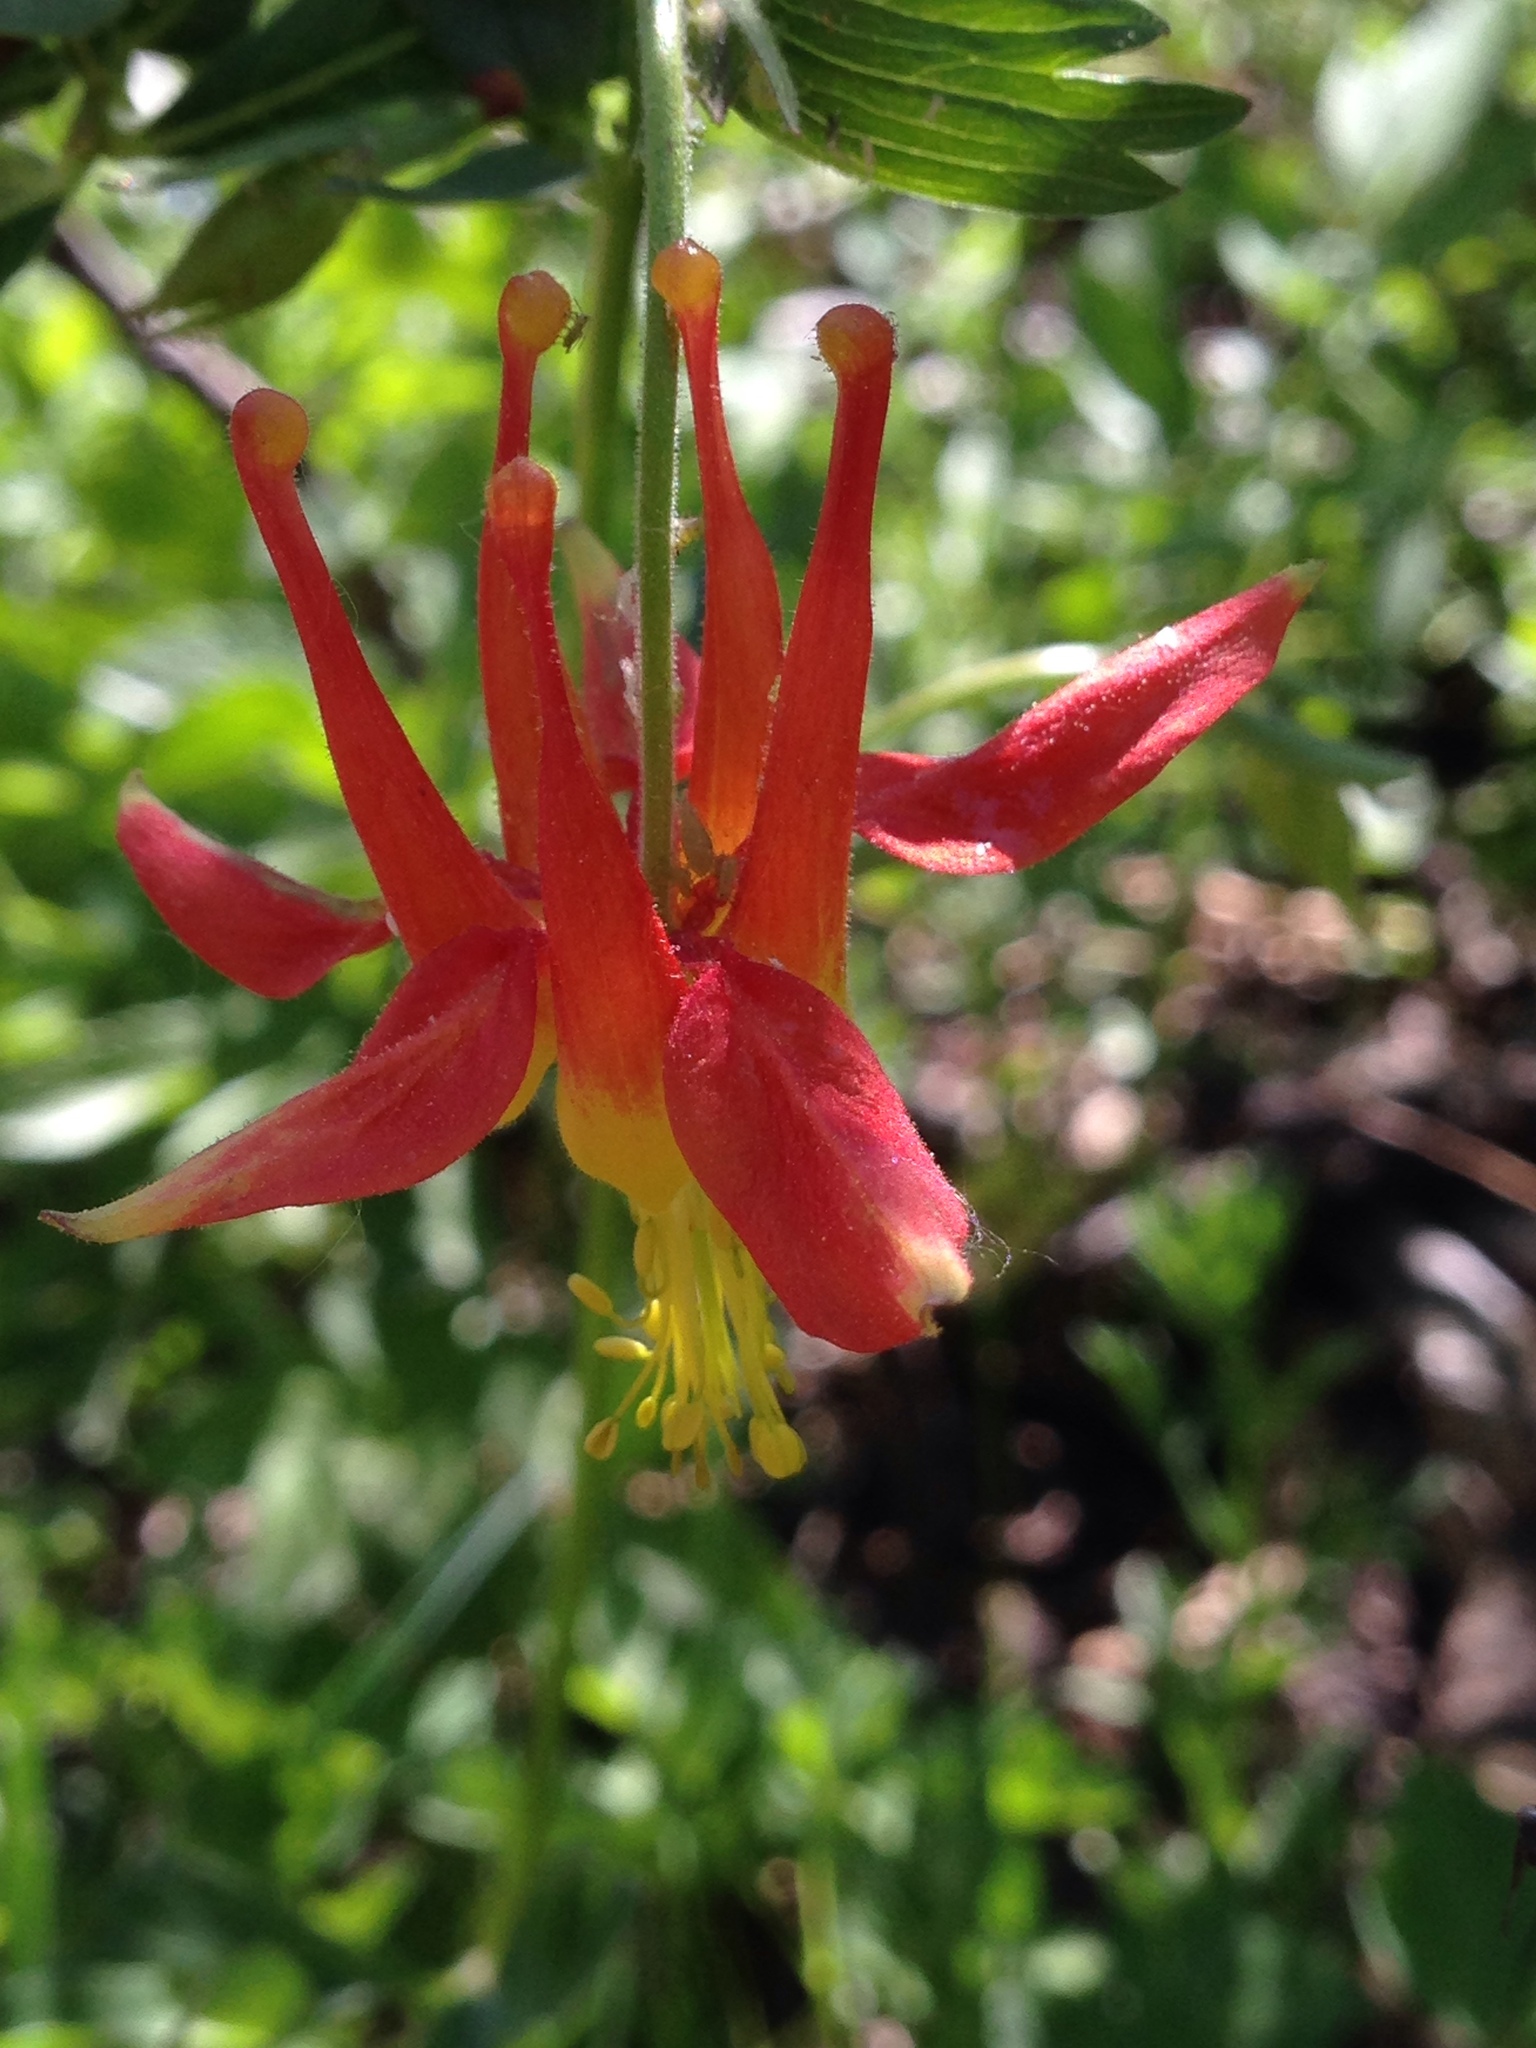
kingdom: Plantae
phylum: Tracheophyta
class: Magnoliopsida
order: Ranunculales
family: Ranunculaceae
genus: Aquilegia
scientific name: Aquilegia formosa
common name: Sitka columbine
